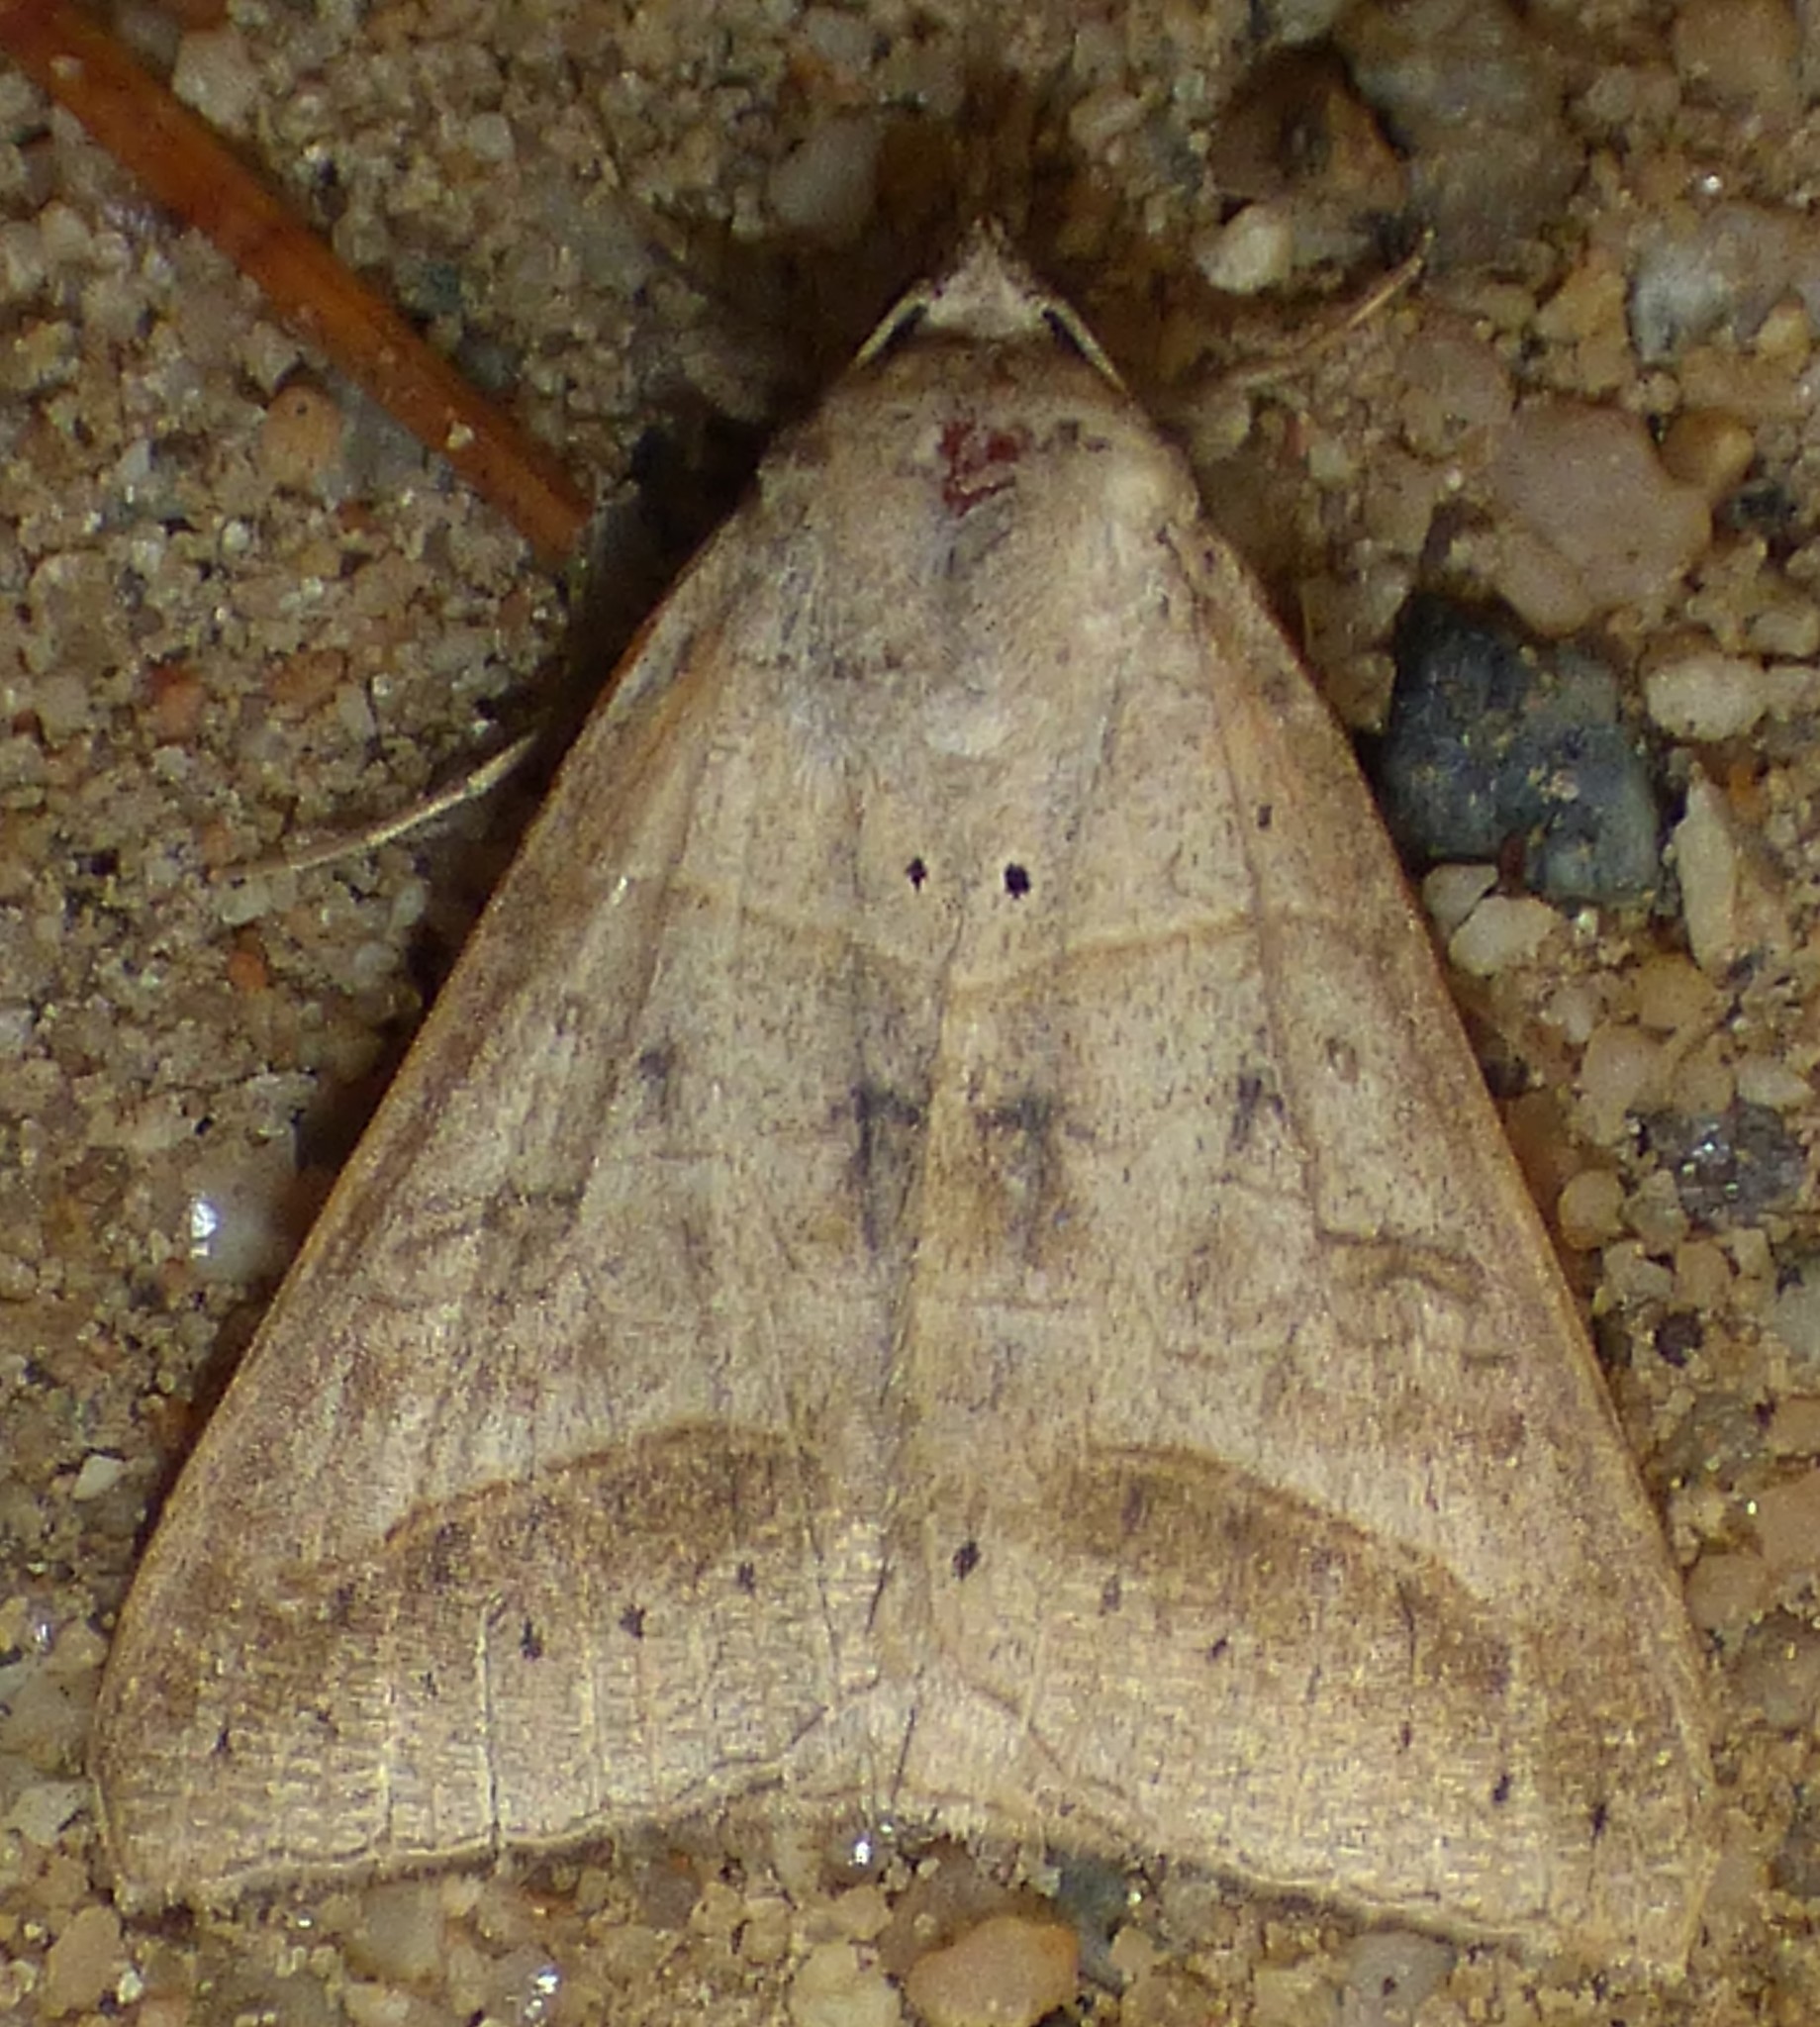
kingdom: Animalia
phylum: Arthropoda
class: Insecta
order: Lepidoptera
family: Erebidae
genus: Mocis
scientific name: Mocis marcida
